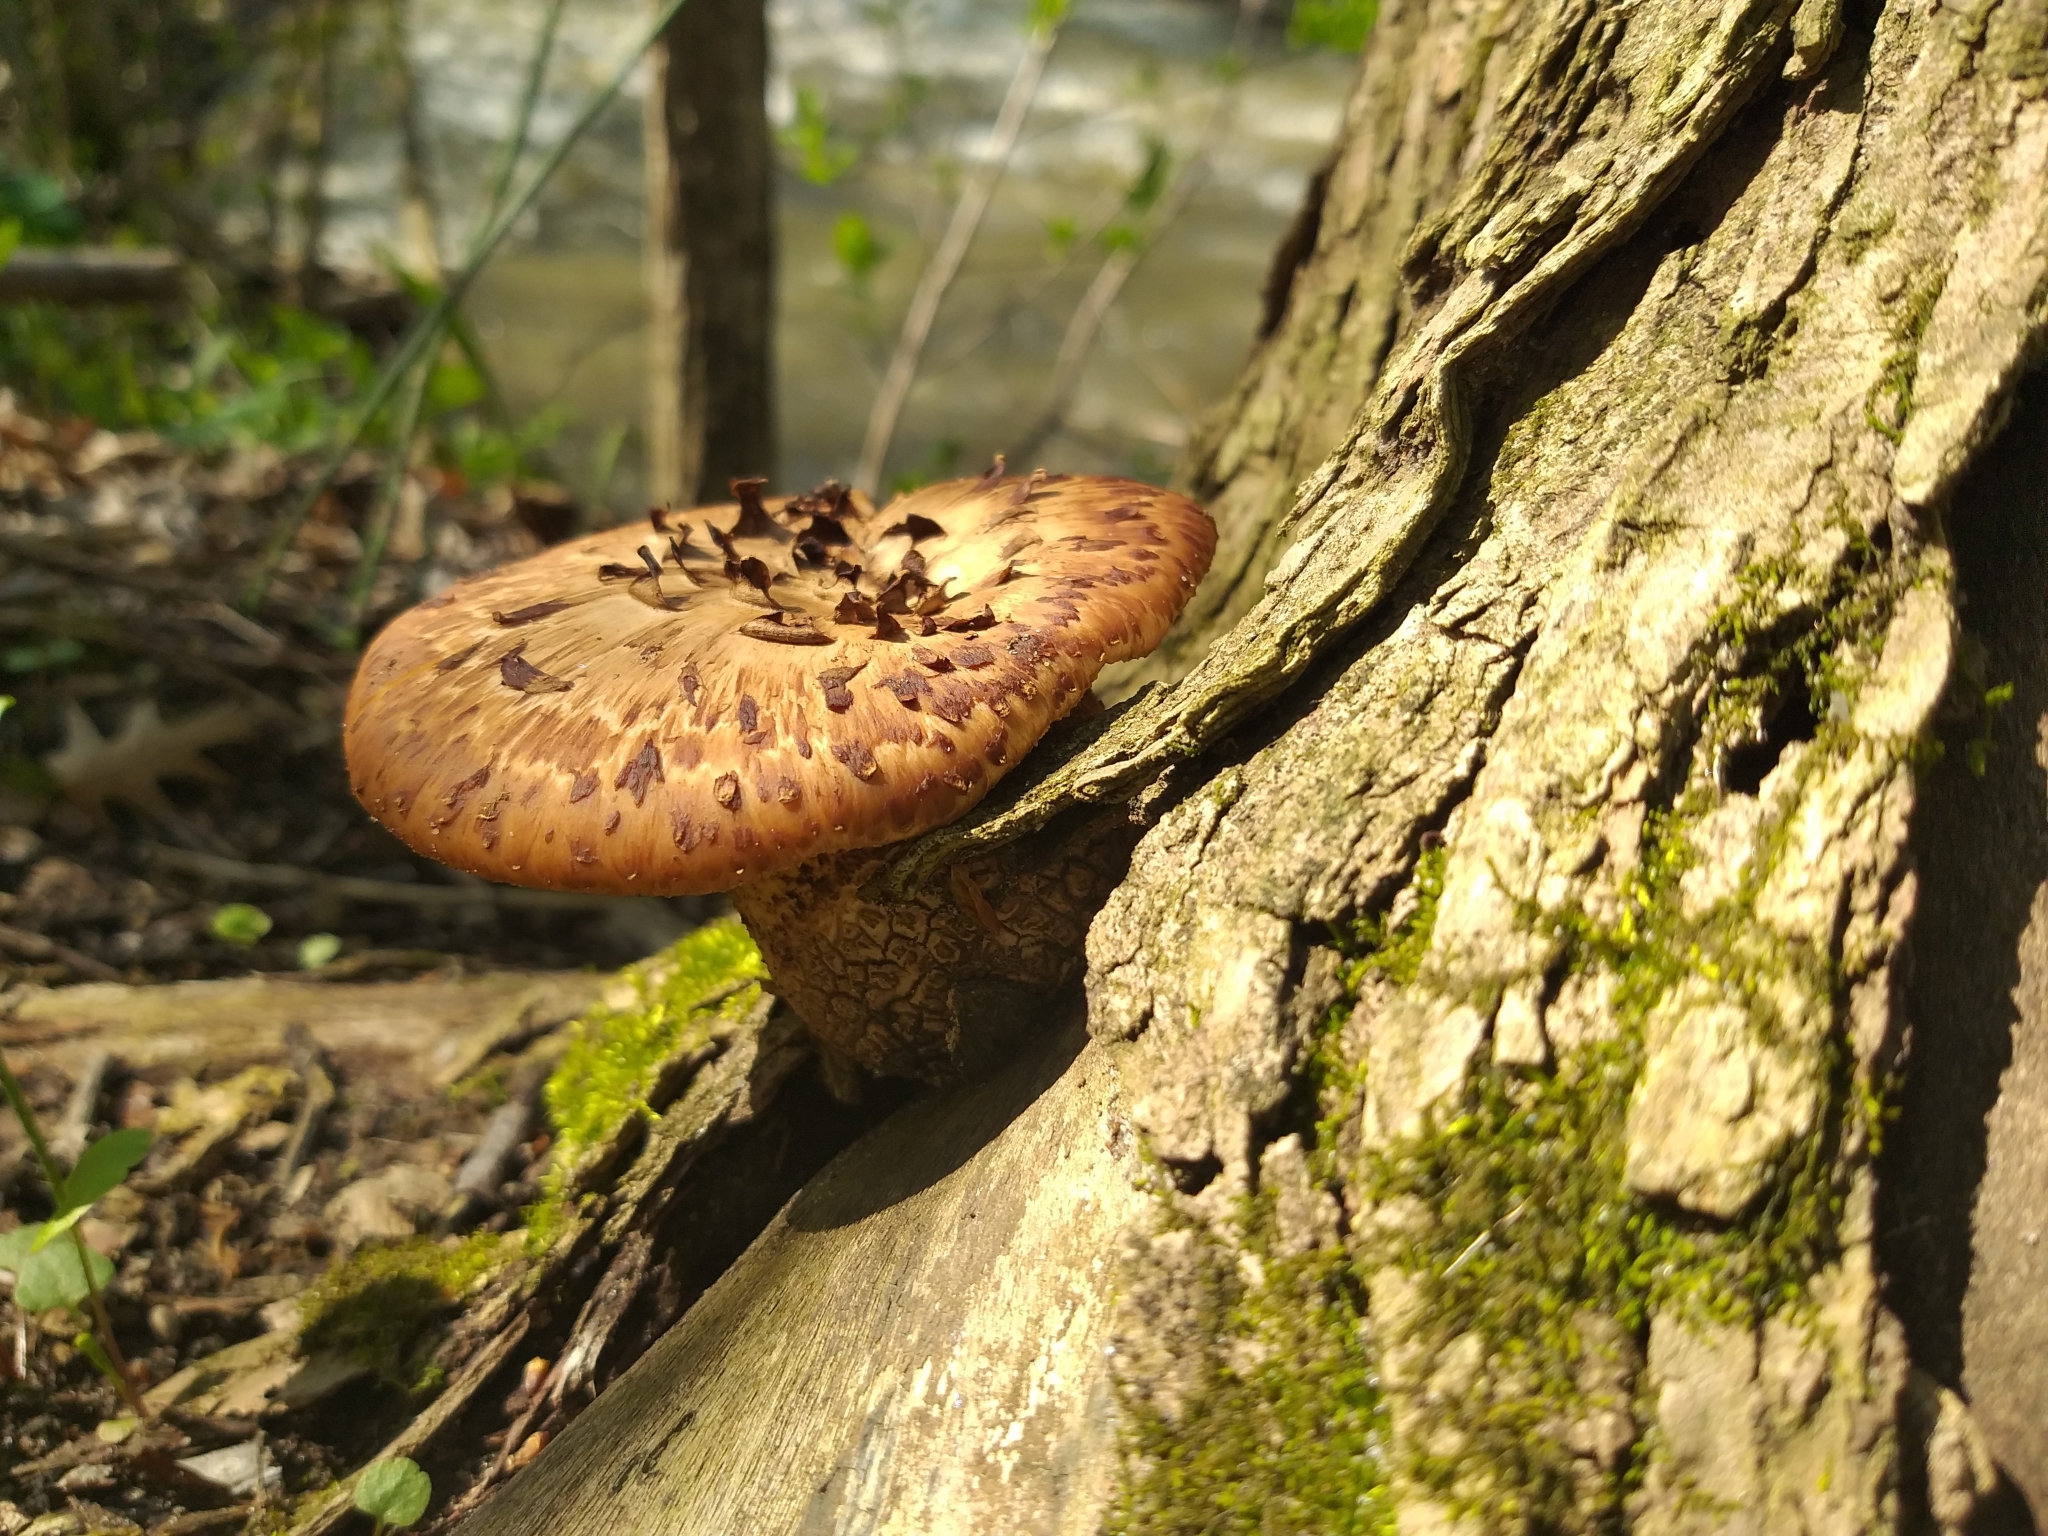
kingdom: Fungi
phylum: Basidiomycota
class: Agaricomycetes
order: Polyporales
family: Polyporaceae
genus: Cerioporus
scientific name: Cerioporus squamosus
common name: Dryad's saddle
